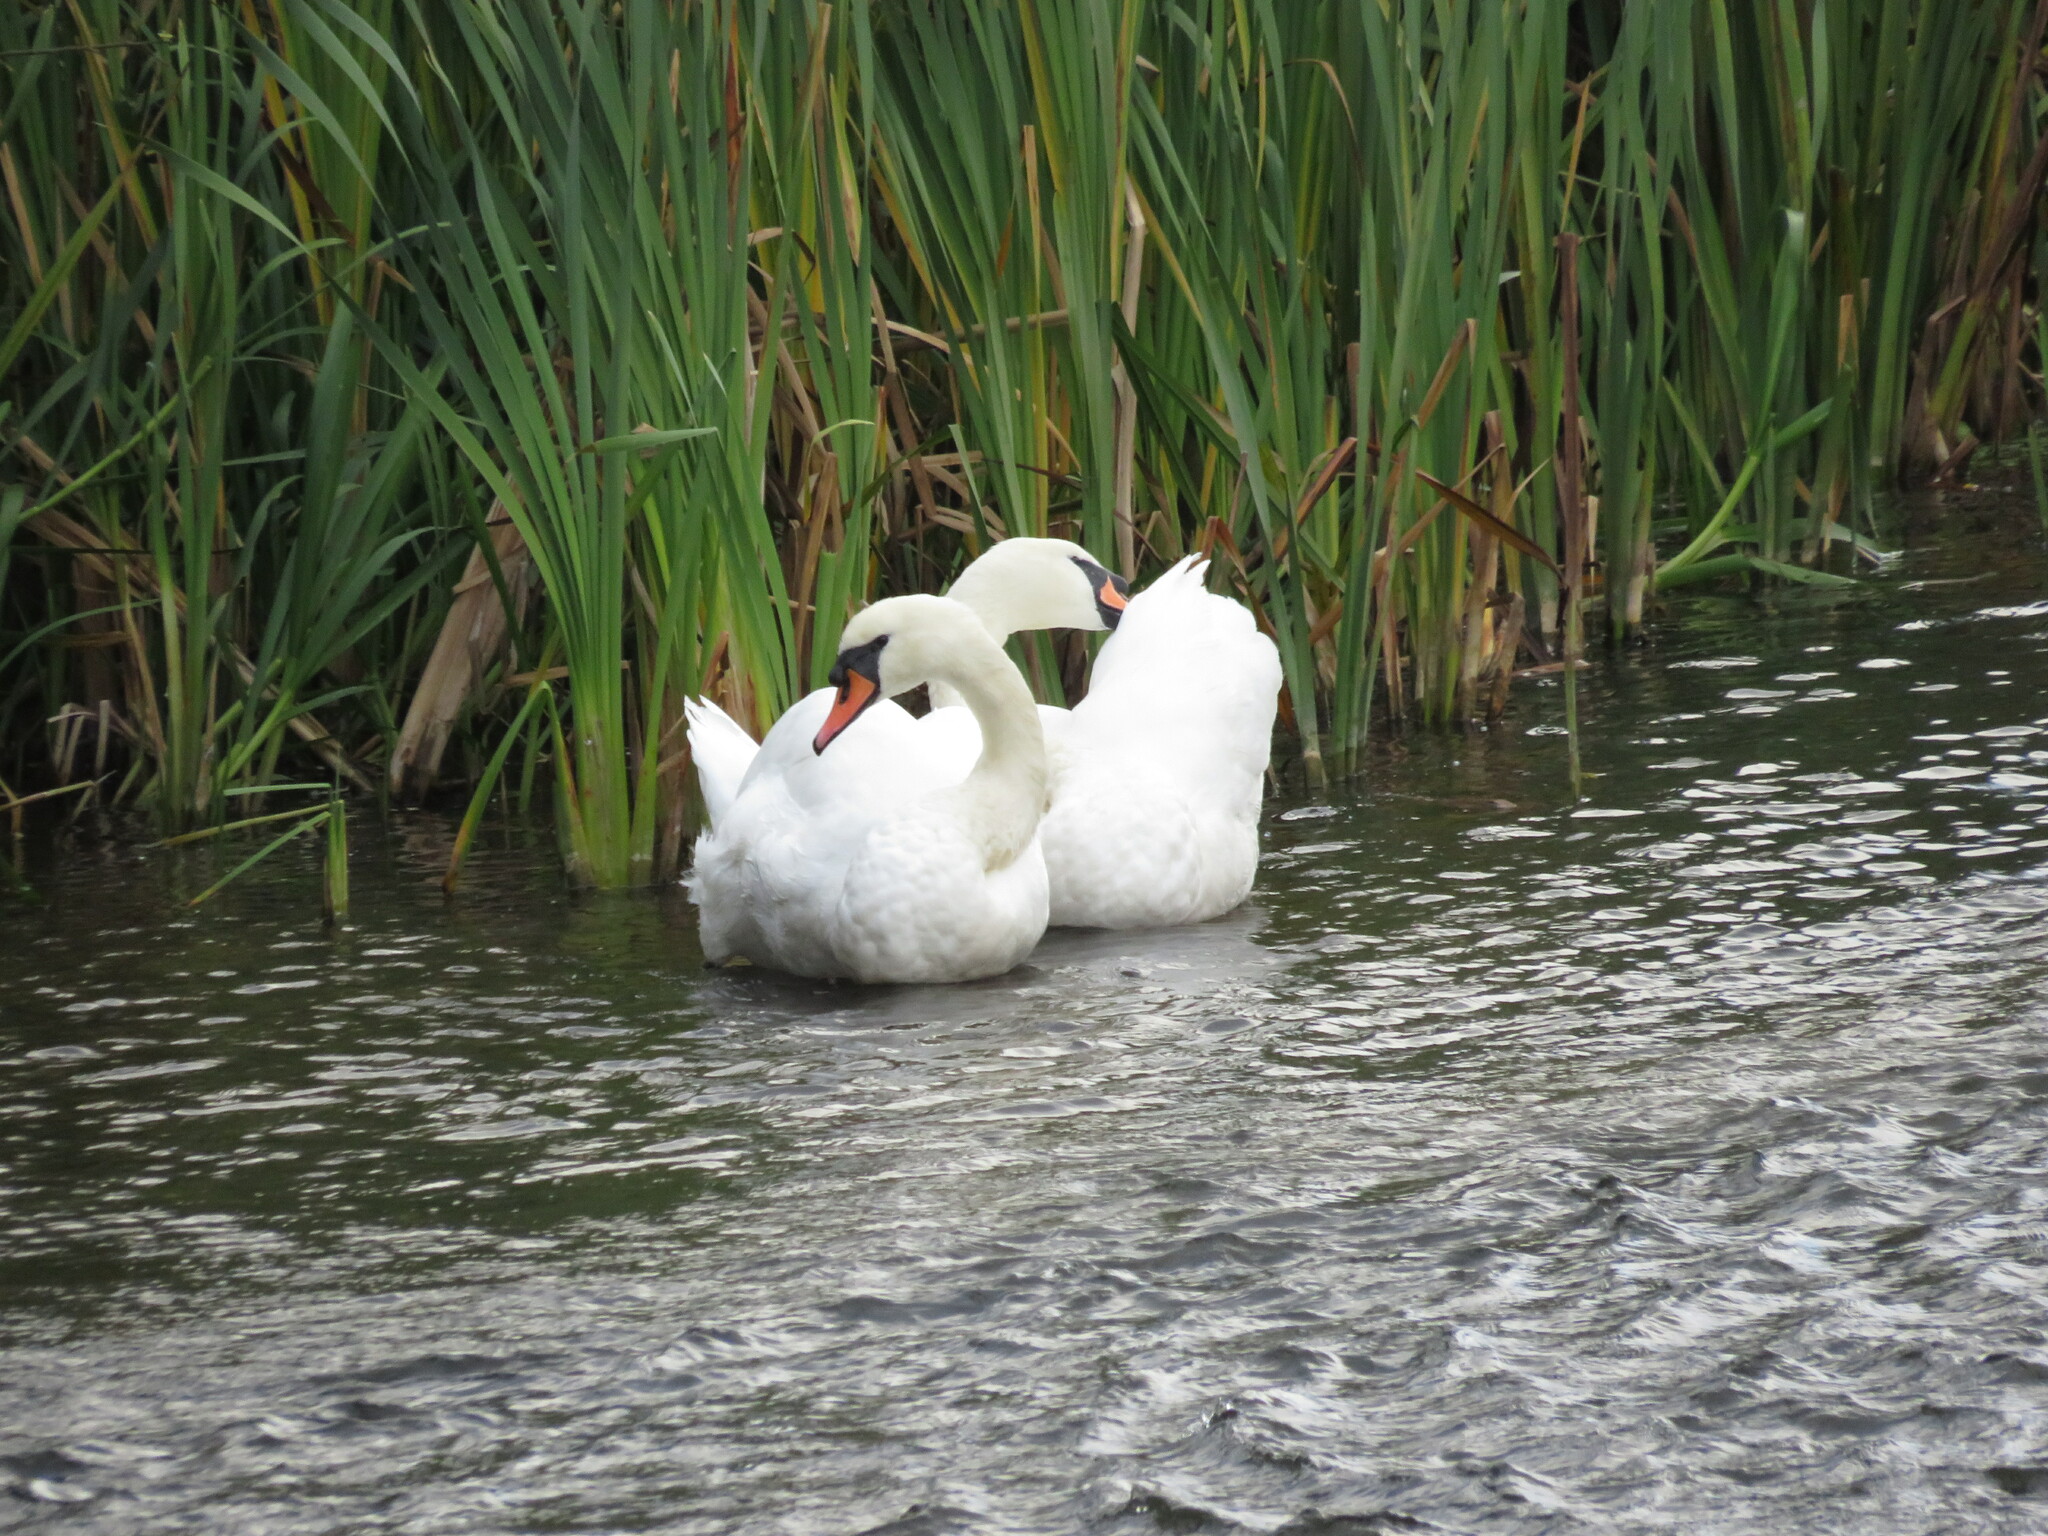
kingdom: Animalia
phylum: Chordata
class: Aves
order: Anseriformes
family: Anatidae
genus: Cygnus
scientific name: Cygnus olor
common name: Mute swan
